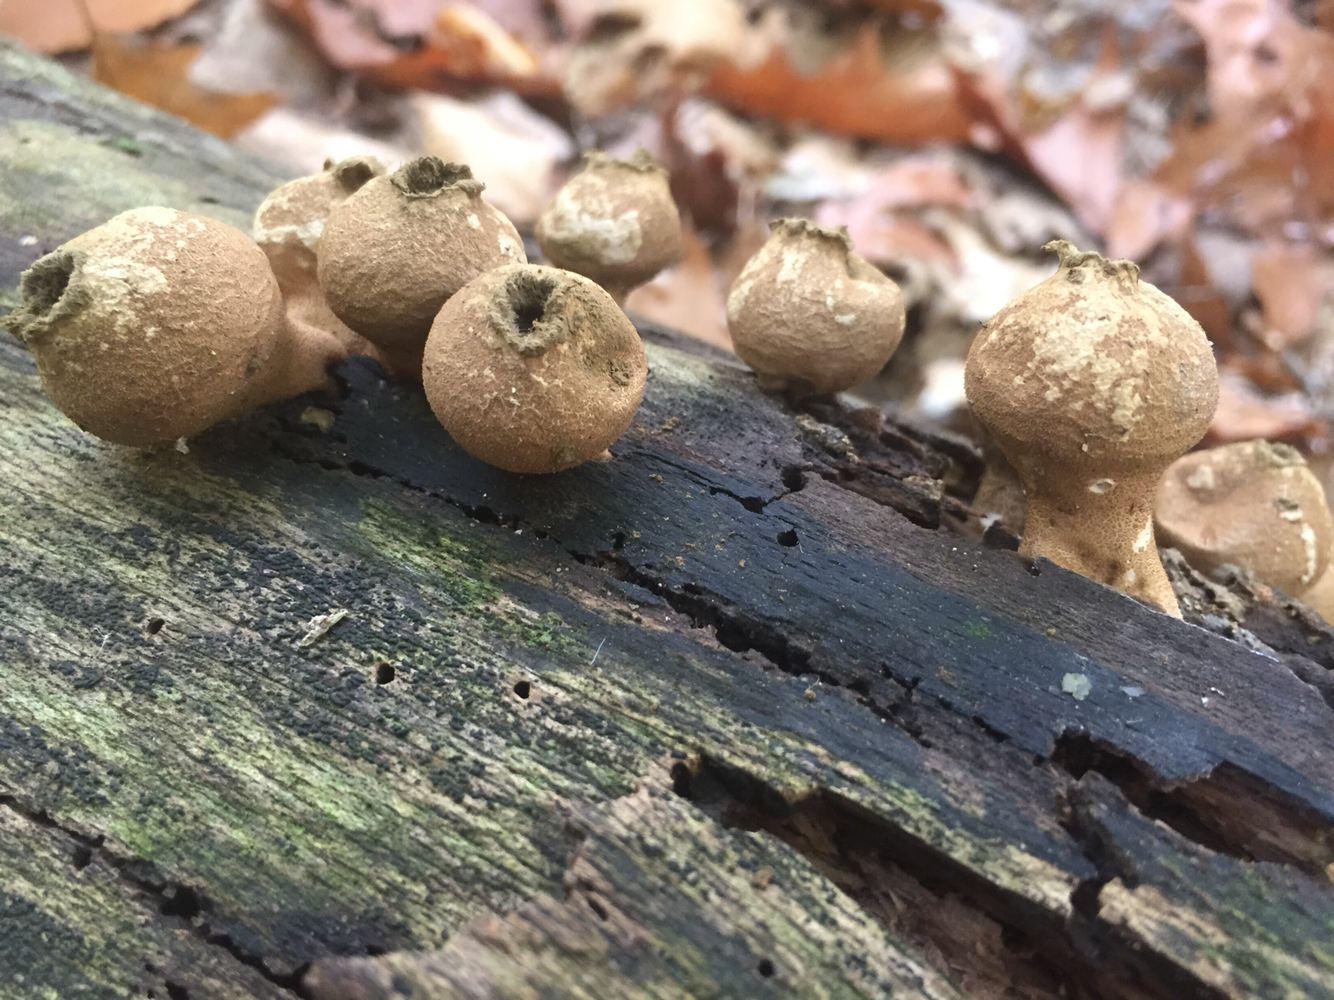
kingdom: Fungi
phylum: Basidiomycota
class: Agaricomycetes
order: Agaricales
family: Lycoperdaceae
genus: Apioperdon
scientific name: Apioperdon pyriforme
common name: Pear-shaped puffball
